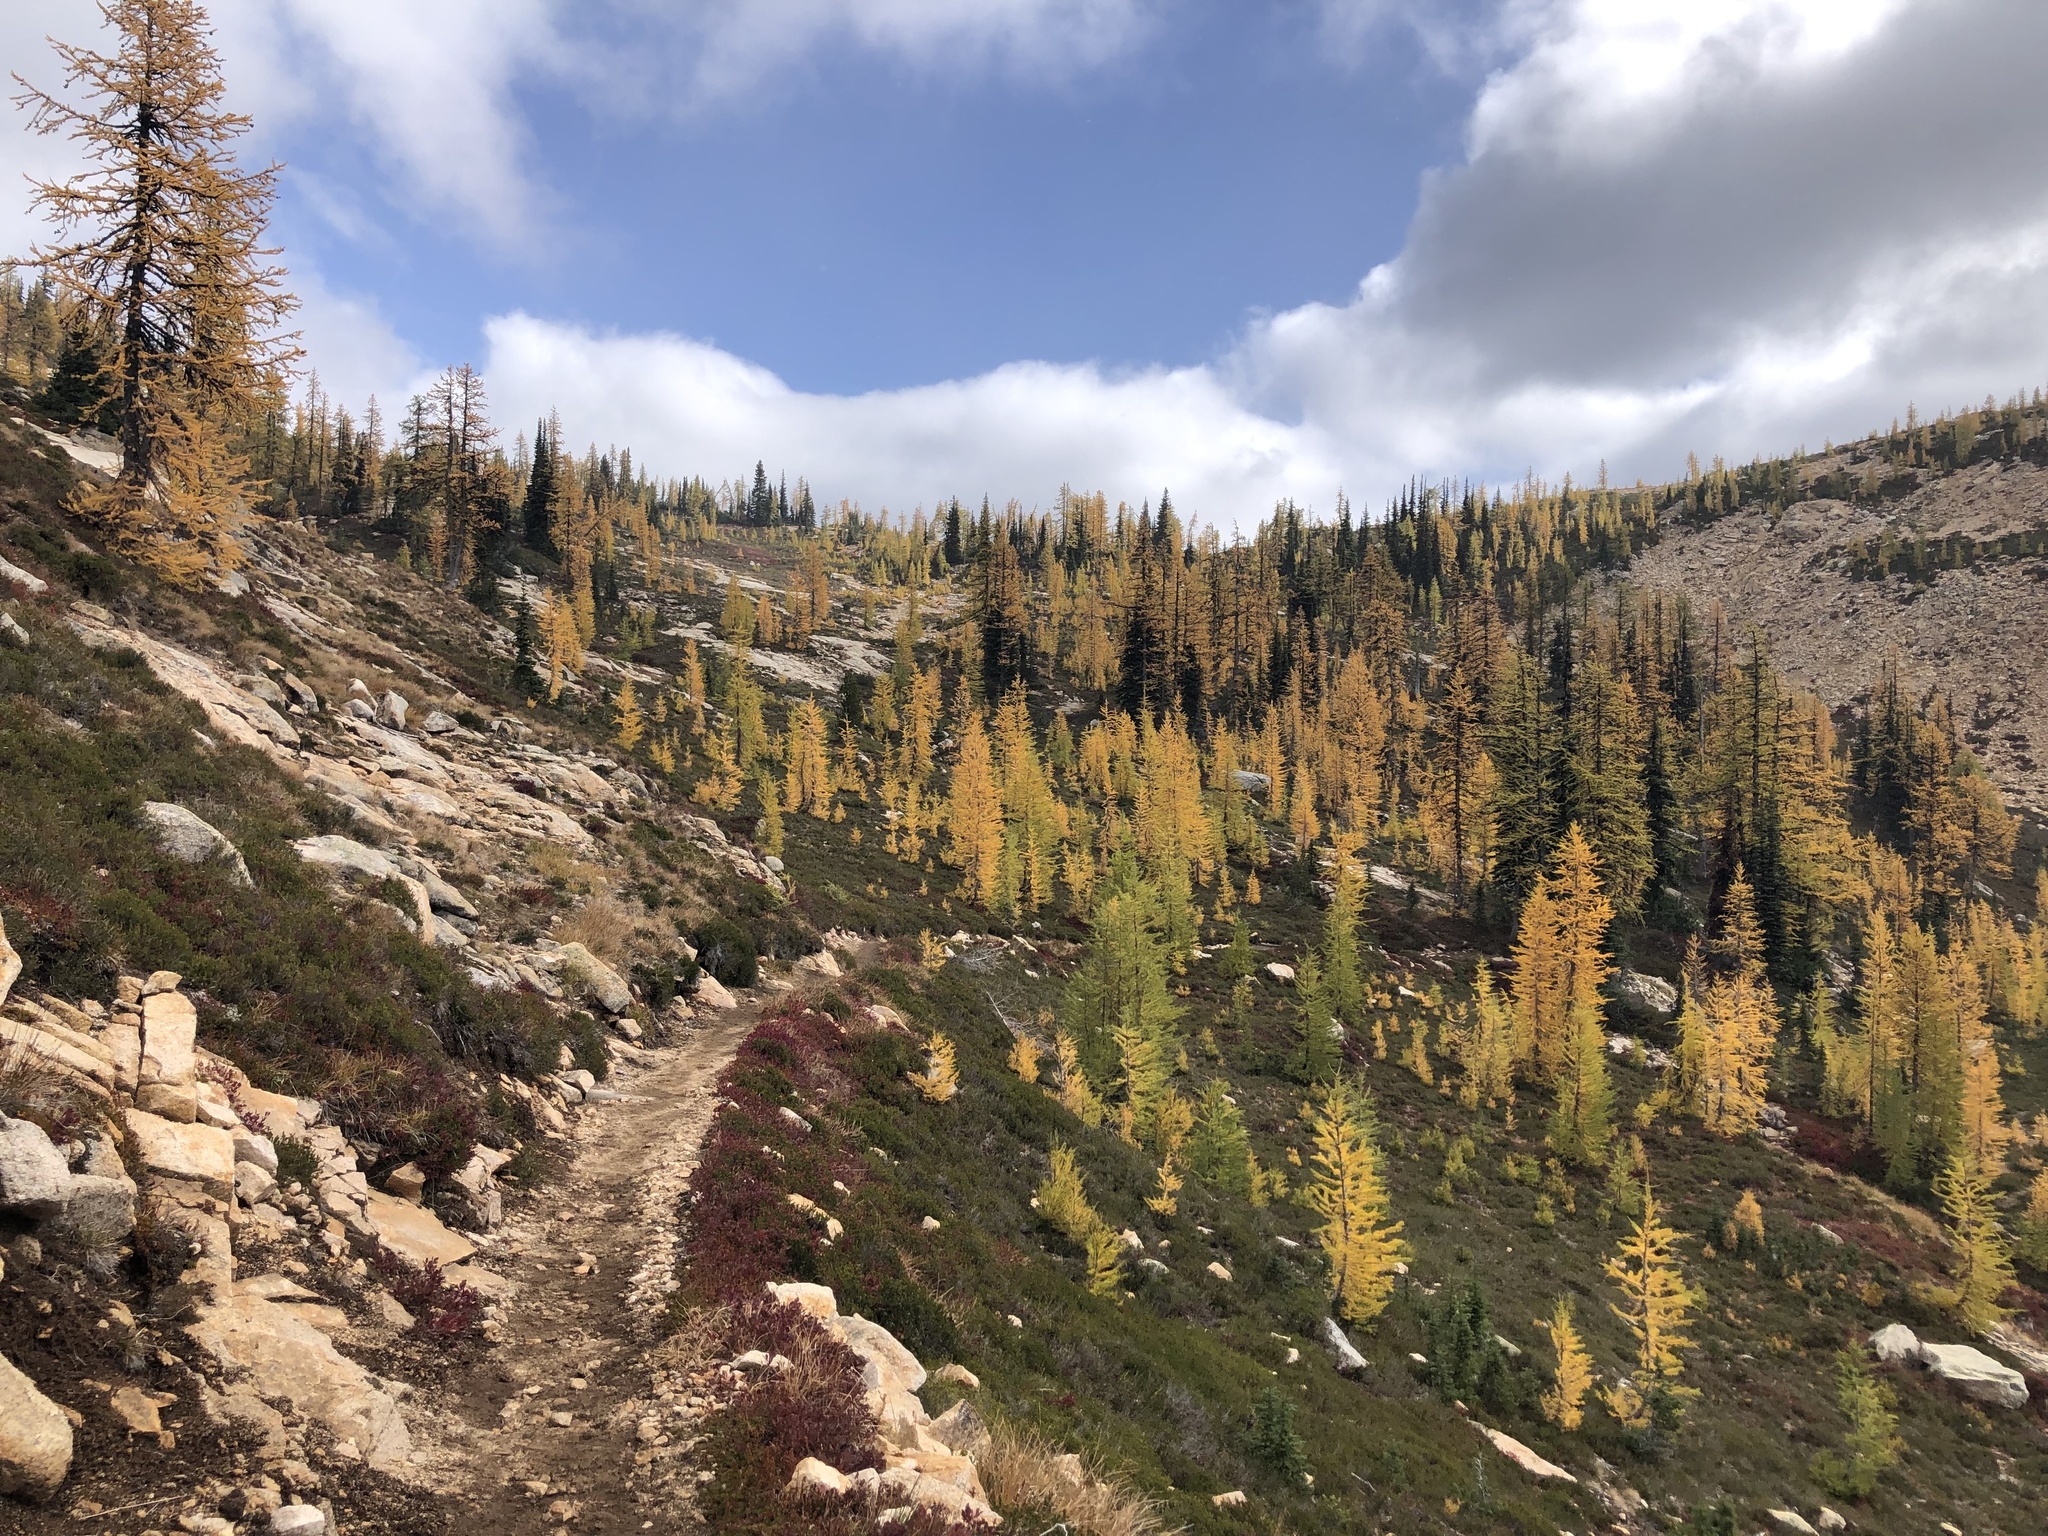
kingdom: Plantae
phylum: Tracheophyta
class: Pinopsida
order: Pinales
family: Pinaceae
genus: Larix
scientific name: Larix lyallii
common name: Alpine larch
